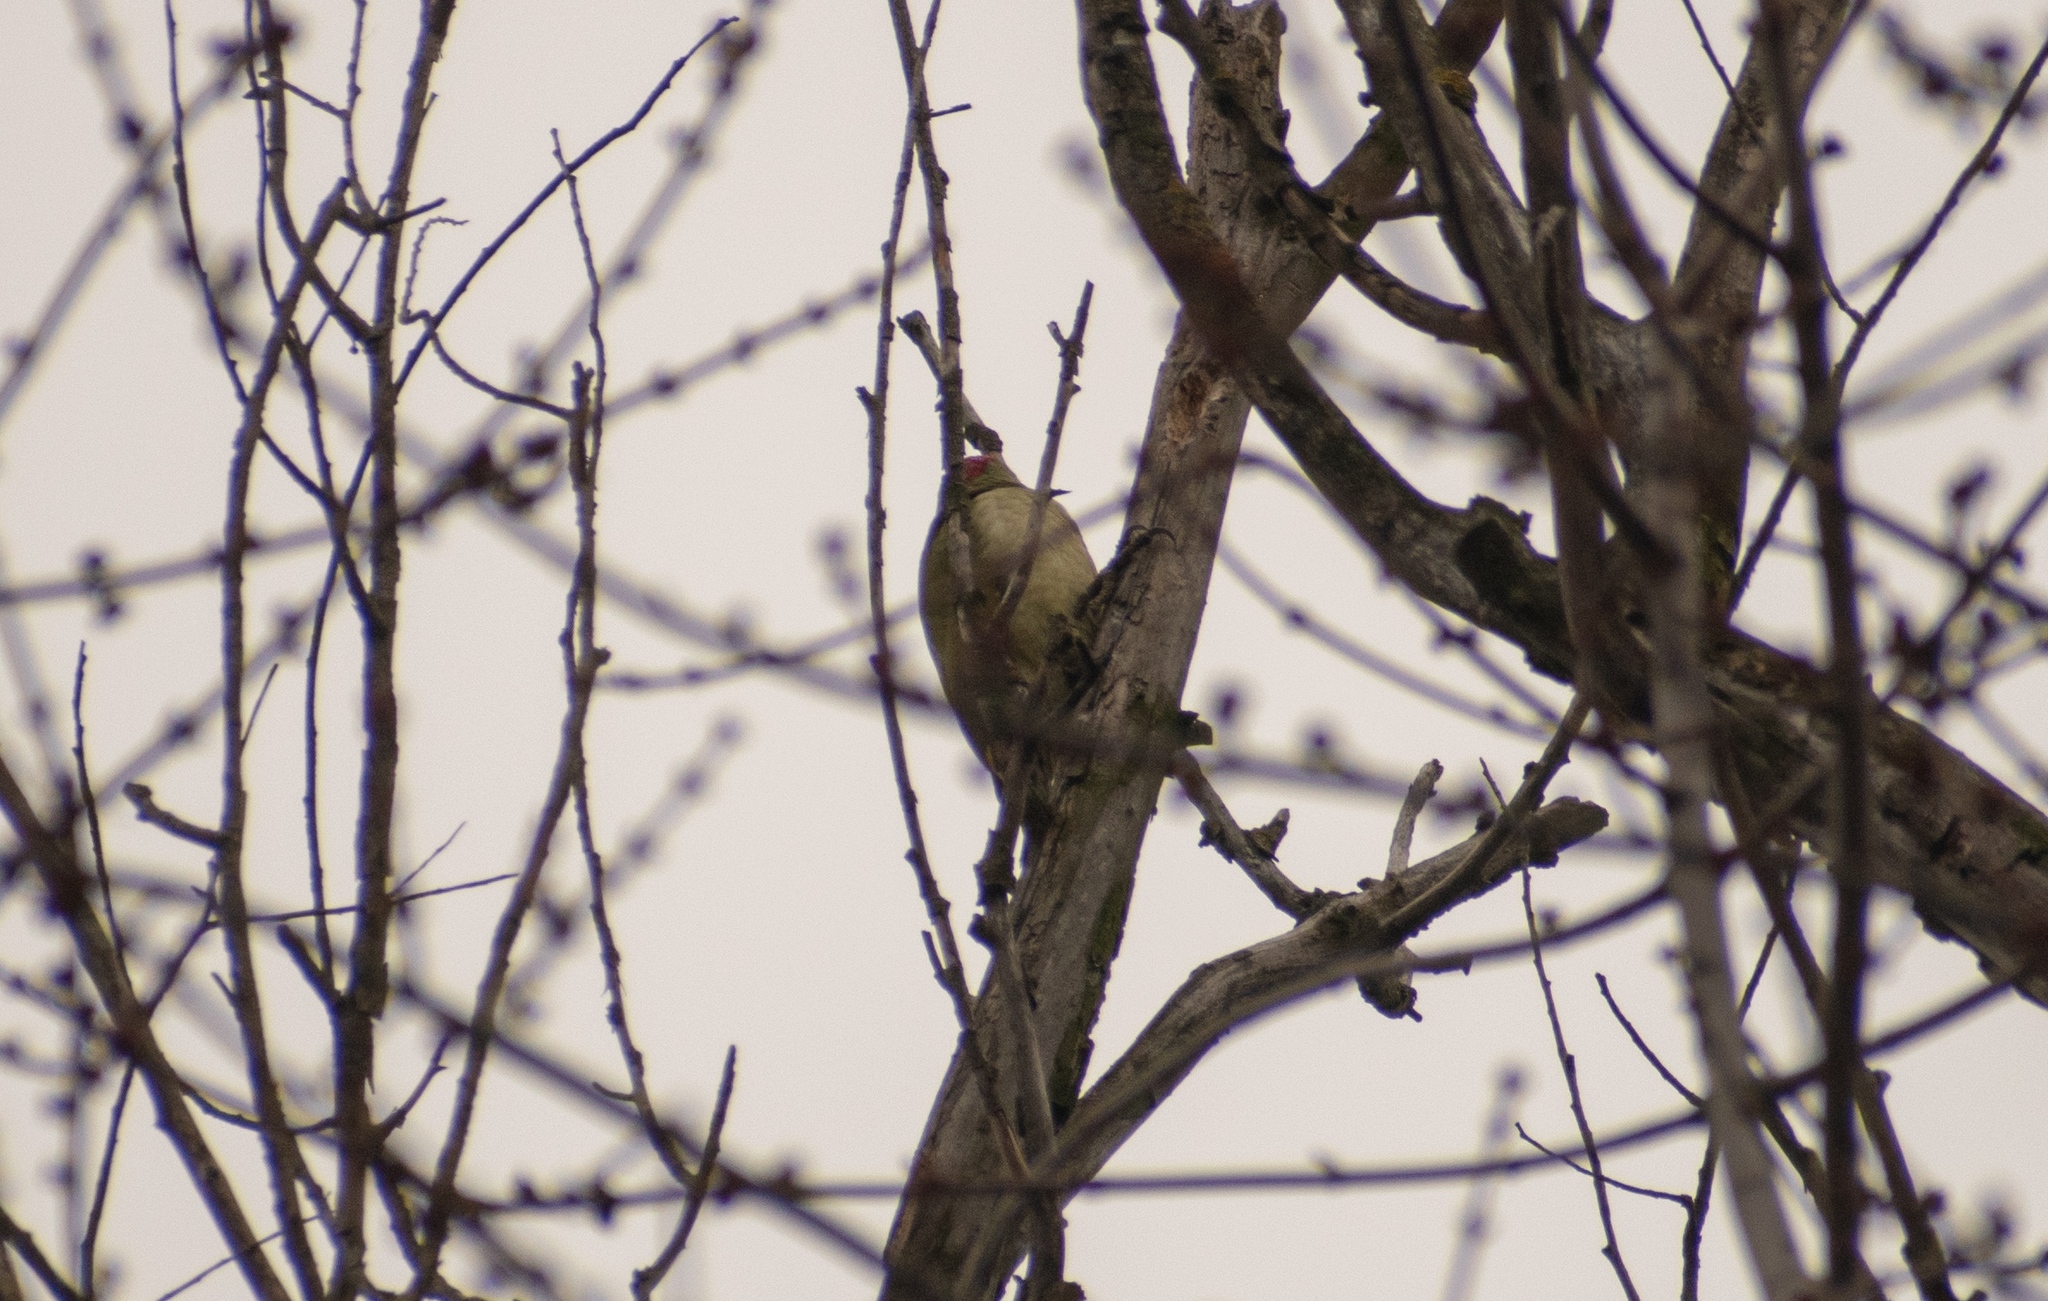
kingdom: Animalia
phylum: Chordata
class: Aves
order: Piciformes
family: Picidae
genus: Picus
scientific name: Picus viridis
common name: European green woodpecker
